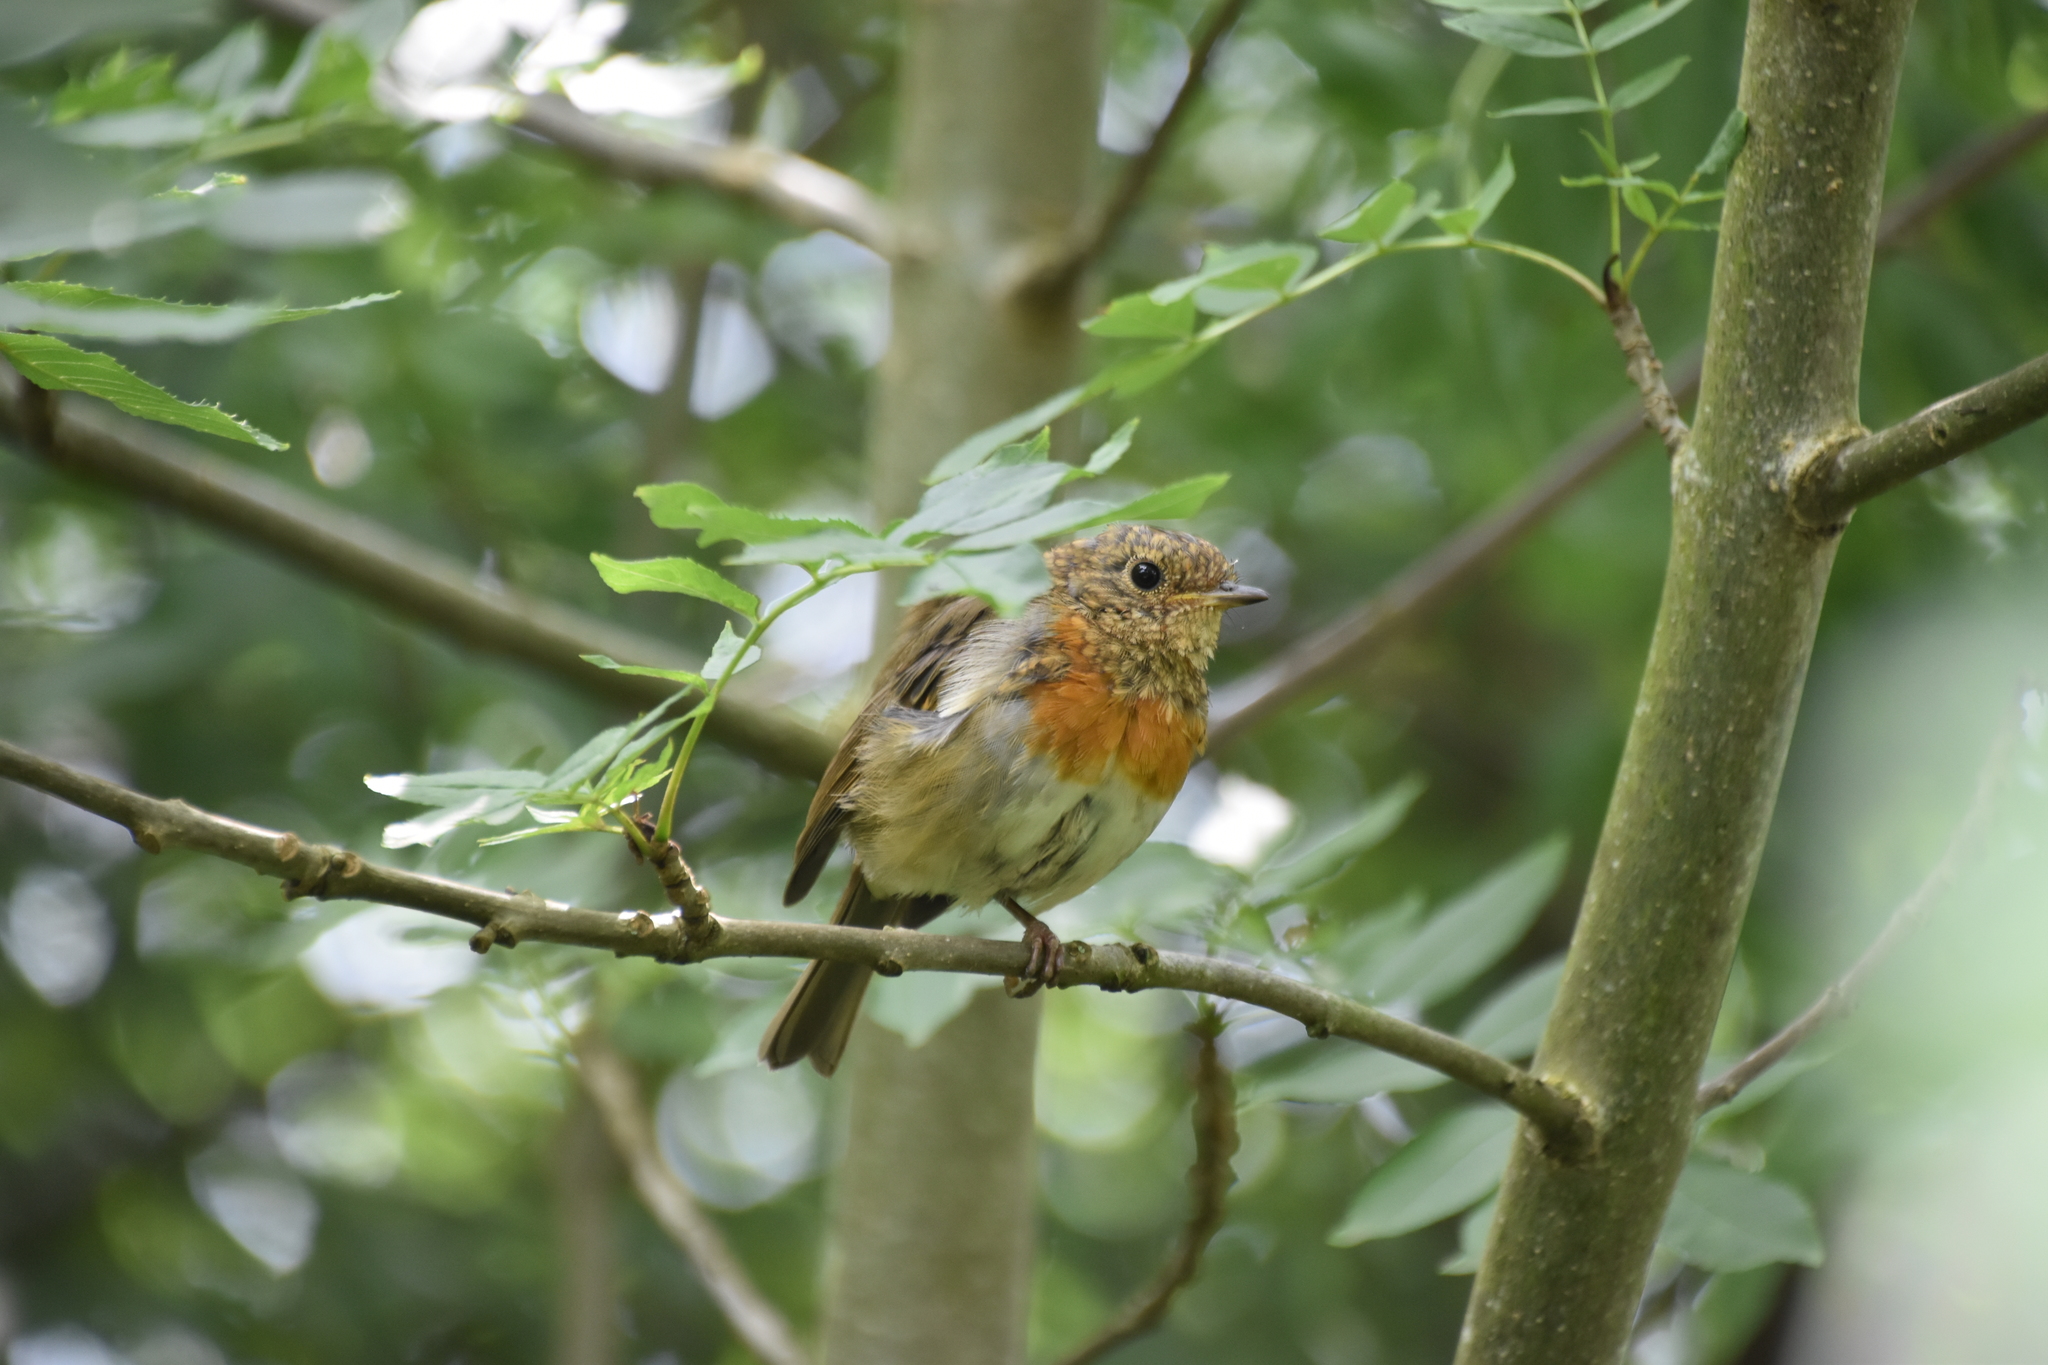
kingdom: Animalia
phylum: Chordata
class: Aves
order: Passeriformes
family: Muscicapidae
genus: Erithacus
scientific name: Erithacus rubecula
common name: European robin
